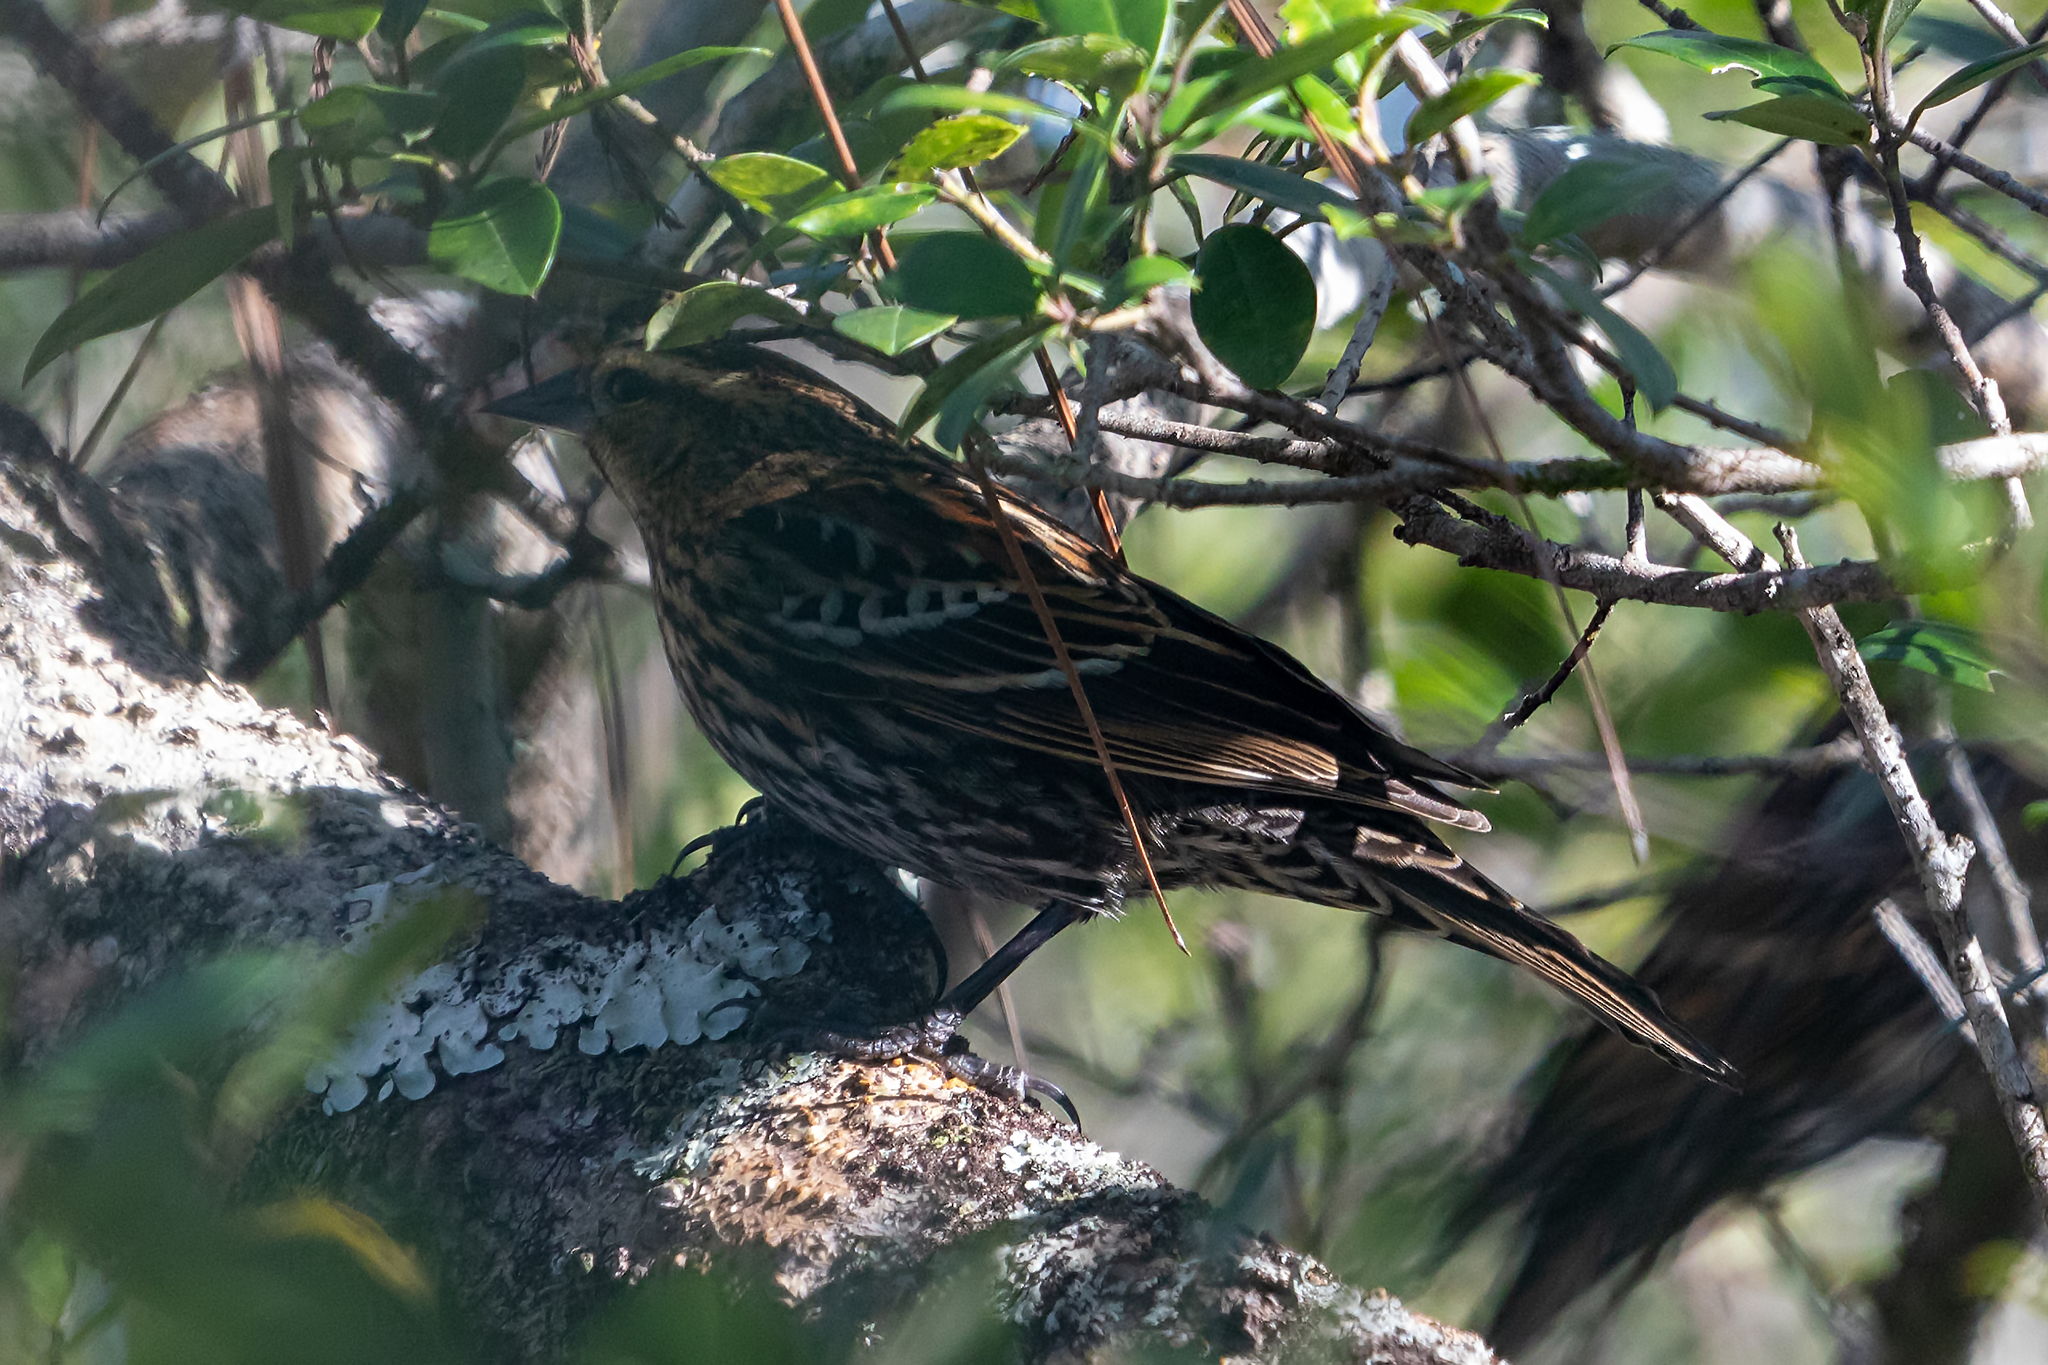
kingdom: Animalia
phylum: Chordata
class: Aves
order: Passeriformes
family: Icteridae
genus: Agelaius
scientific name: Agelaius phoeniceus
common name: Red-winged blackbird
